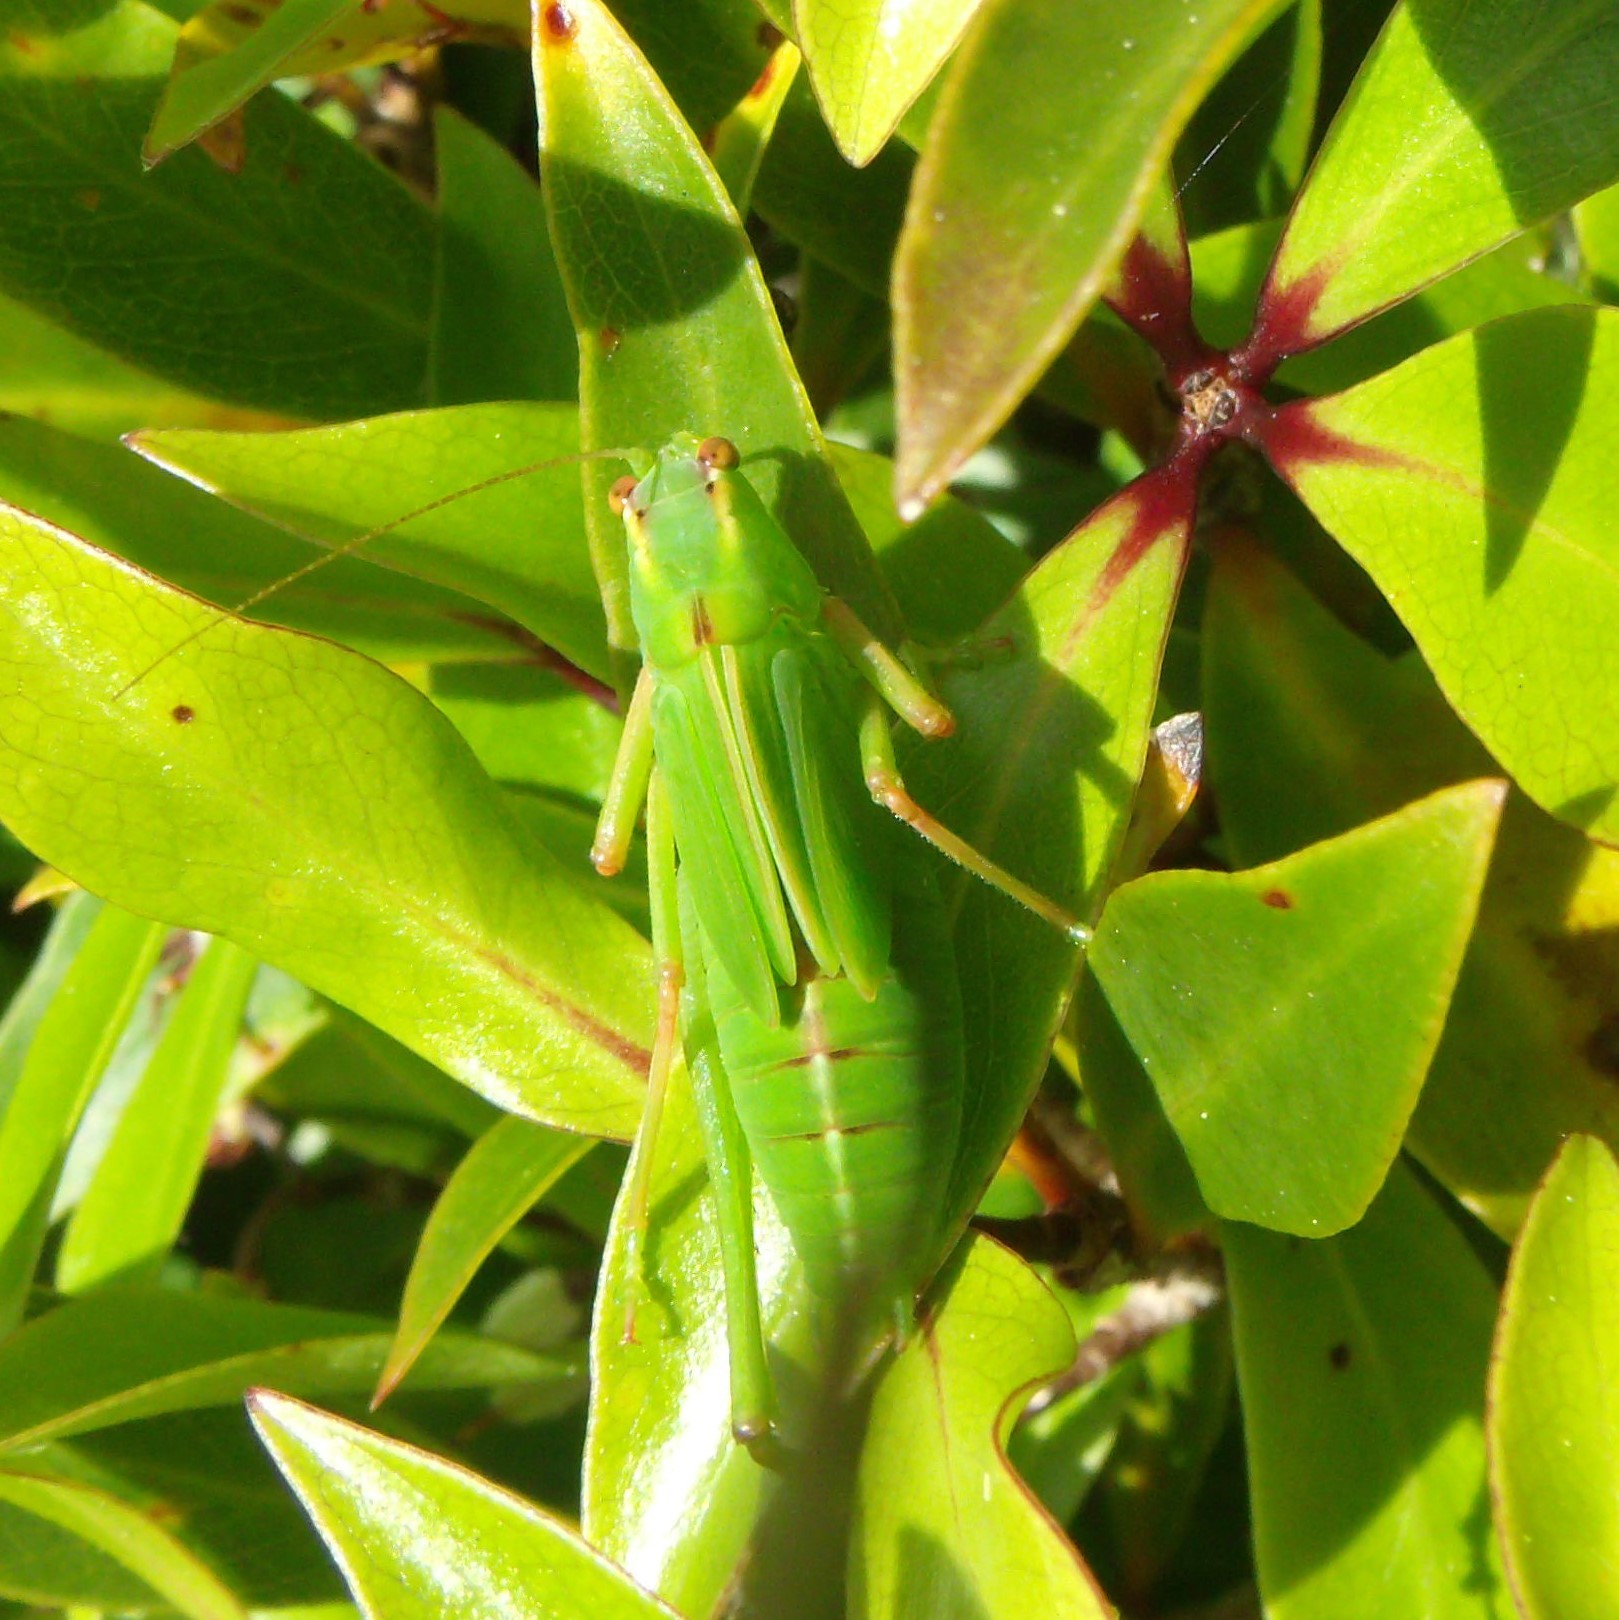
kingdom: Animalia
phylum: Arthropoda
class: Insecta
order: Orthoptera
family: Tettigoniidae
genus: Caedicia
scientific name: Caedicia simplex
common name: Common garden katydid
